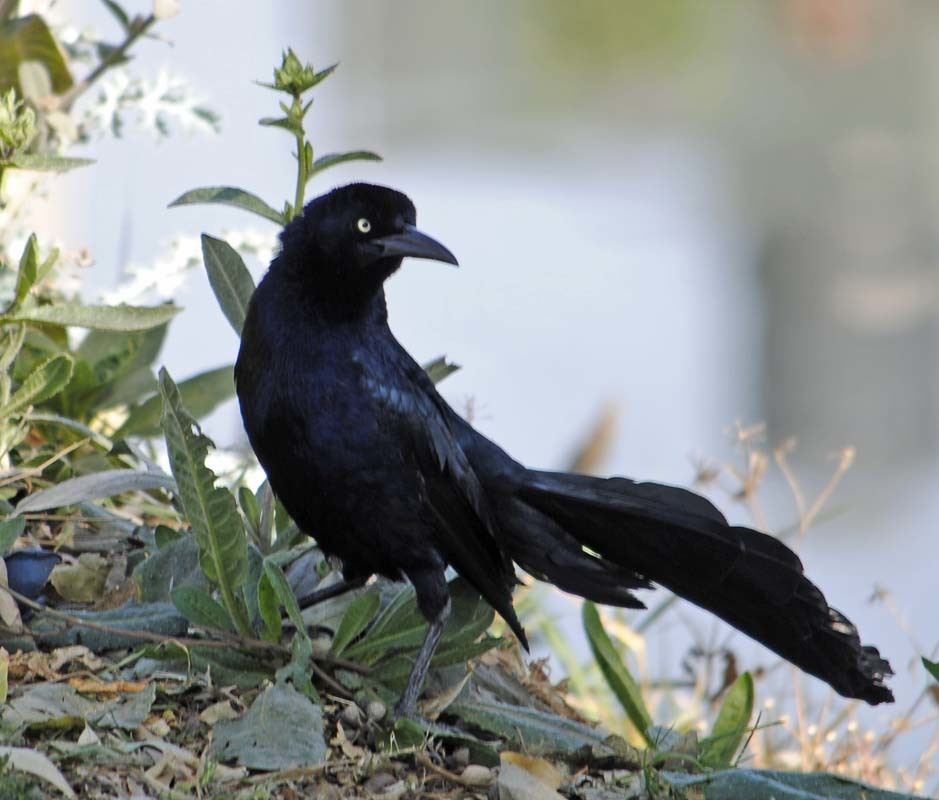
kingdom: Animalia
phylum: Chordata
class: Aves
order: Passeriformes
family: Icteridae
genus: Quiscalus
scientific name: Quiscalus mexicanus
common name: Great-tailed grackle
